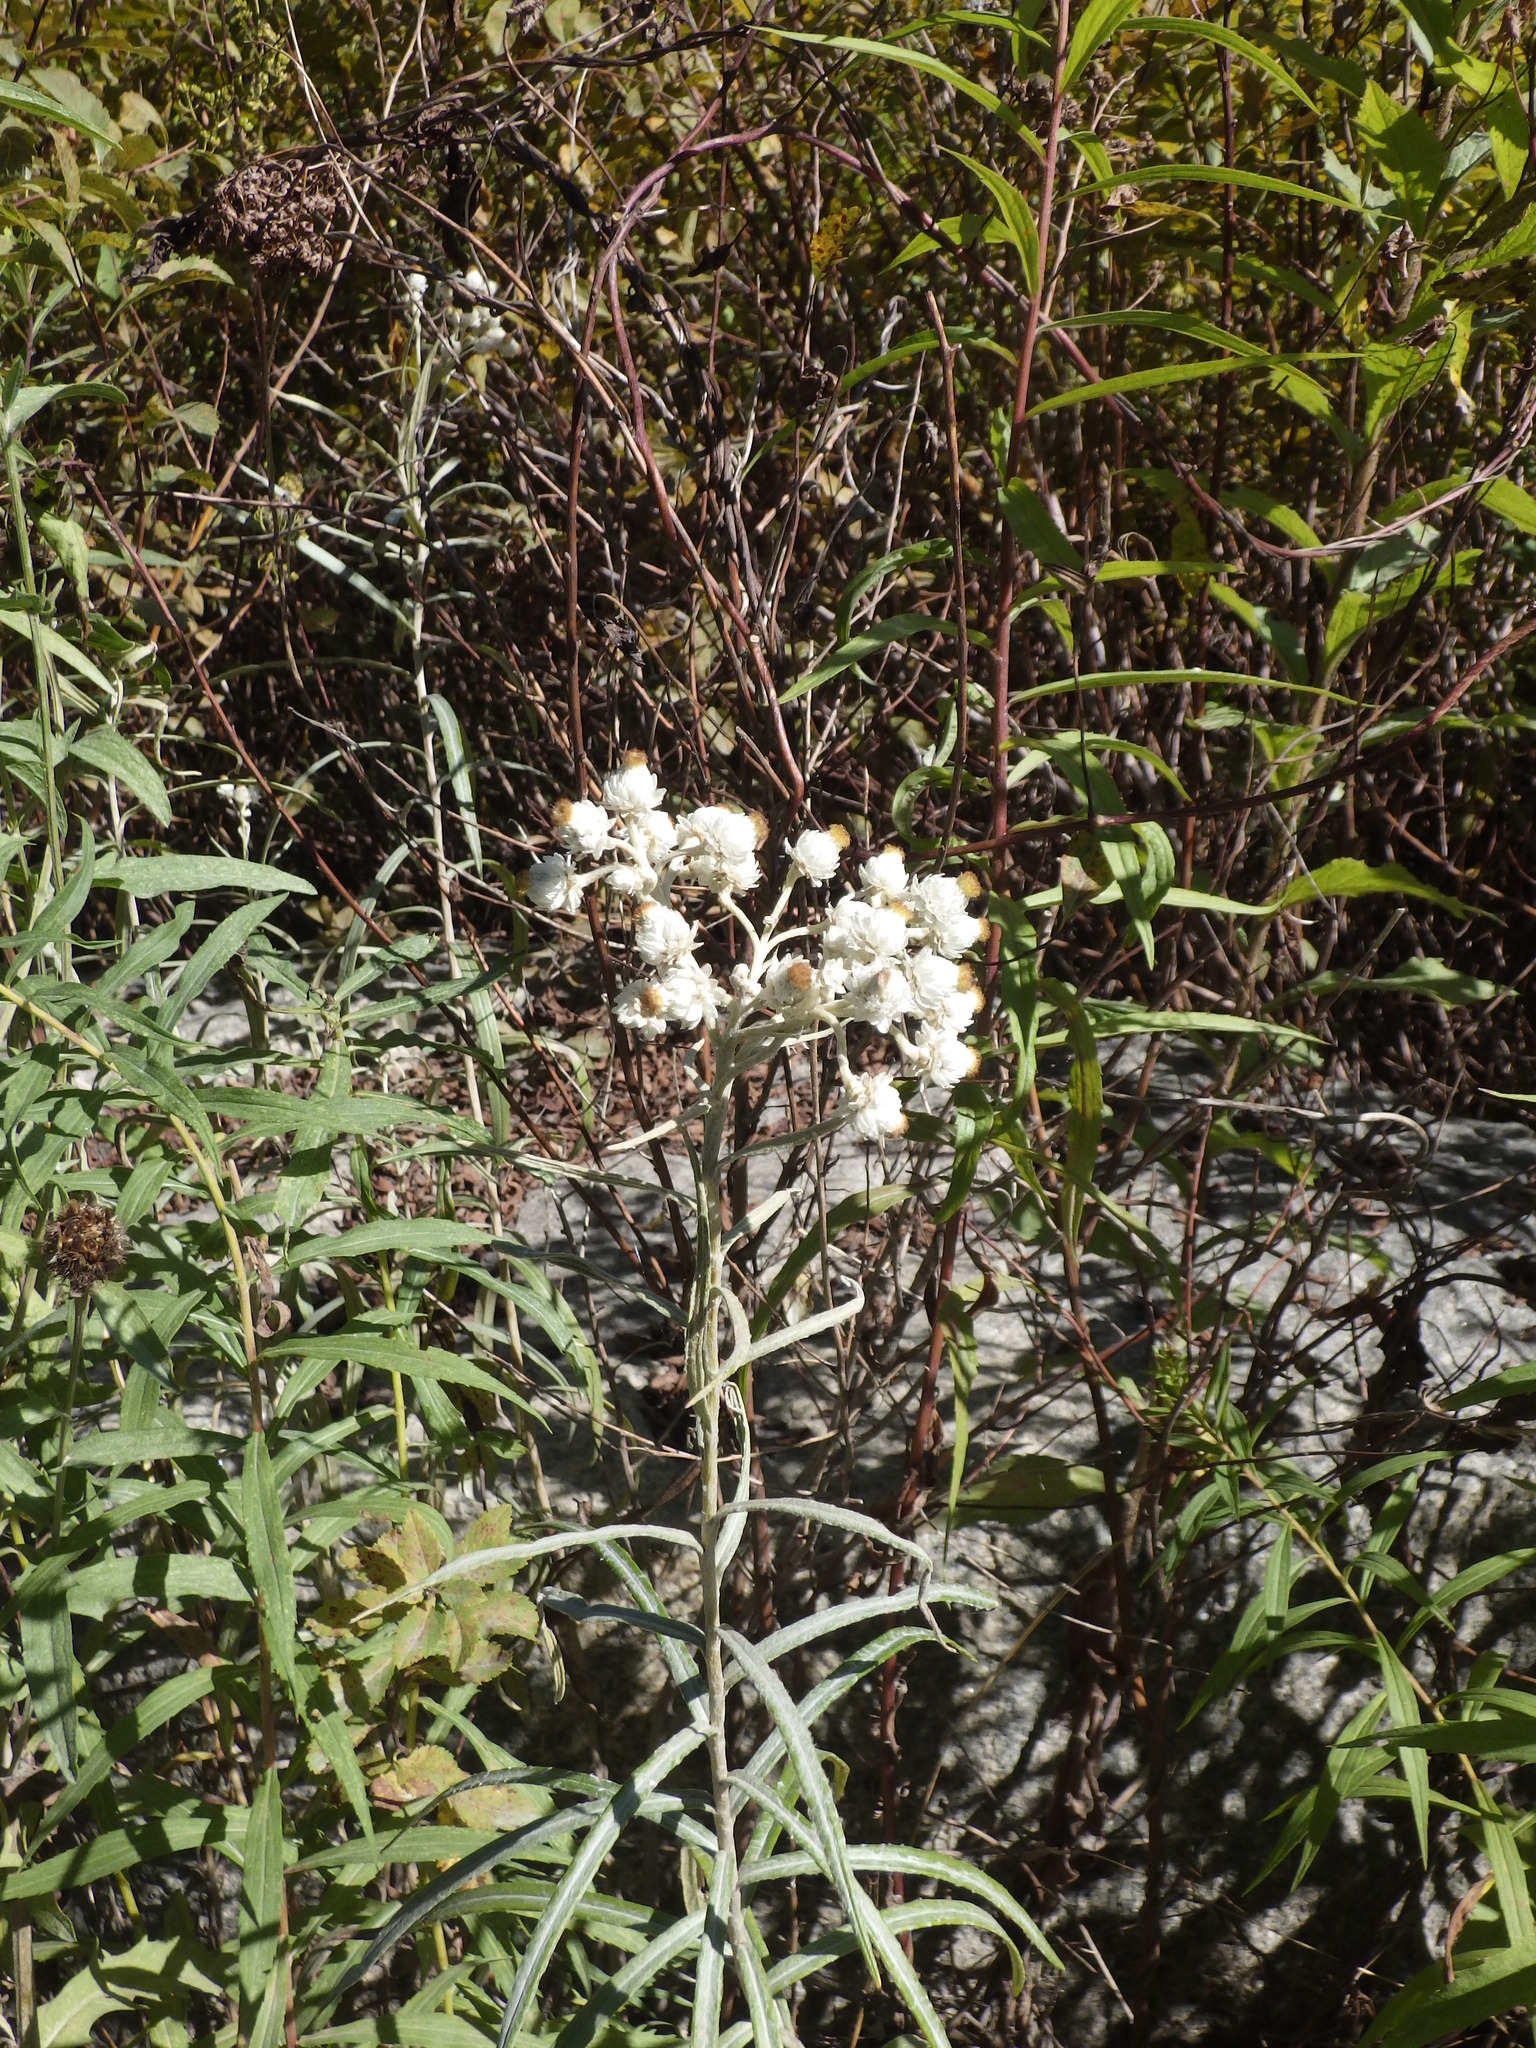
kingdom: Plantae
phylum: Tracheophyta
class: Magnoliopsida
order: Asterales
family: Asteraceae
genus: Anaphalis
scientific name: Anaphalis margaritacea
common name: Pearly everlasting
